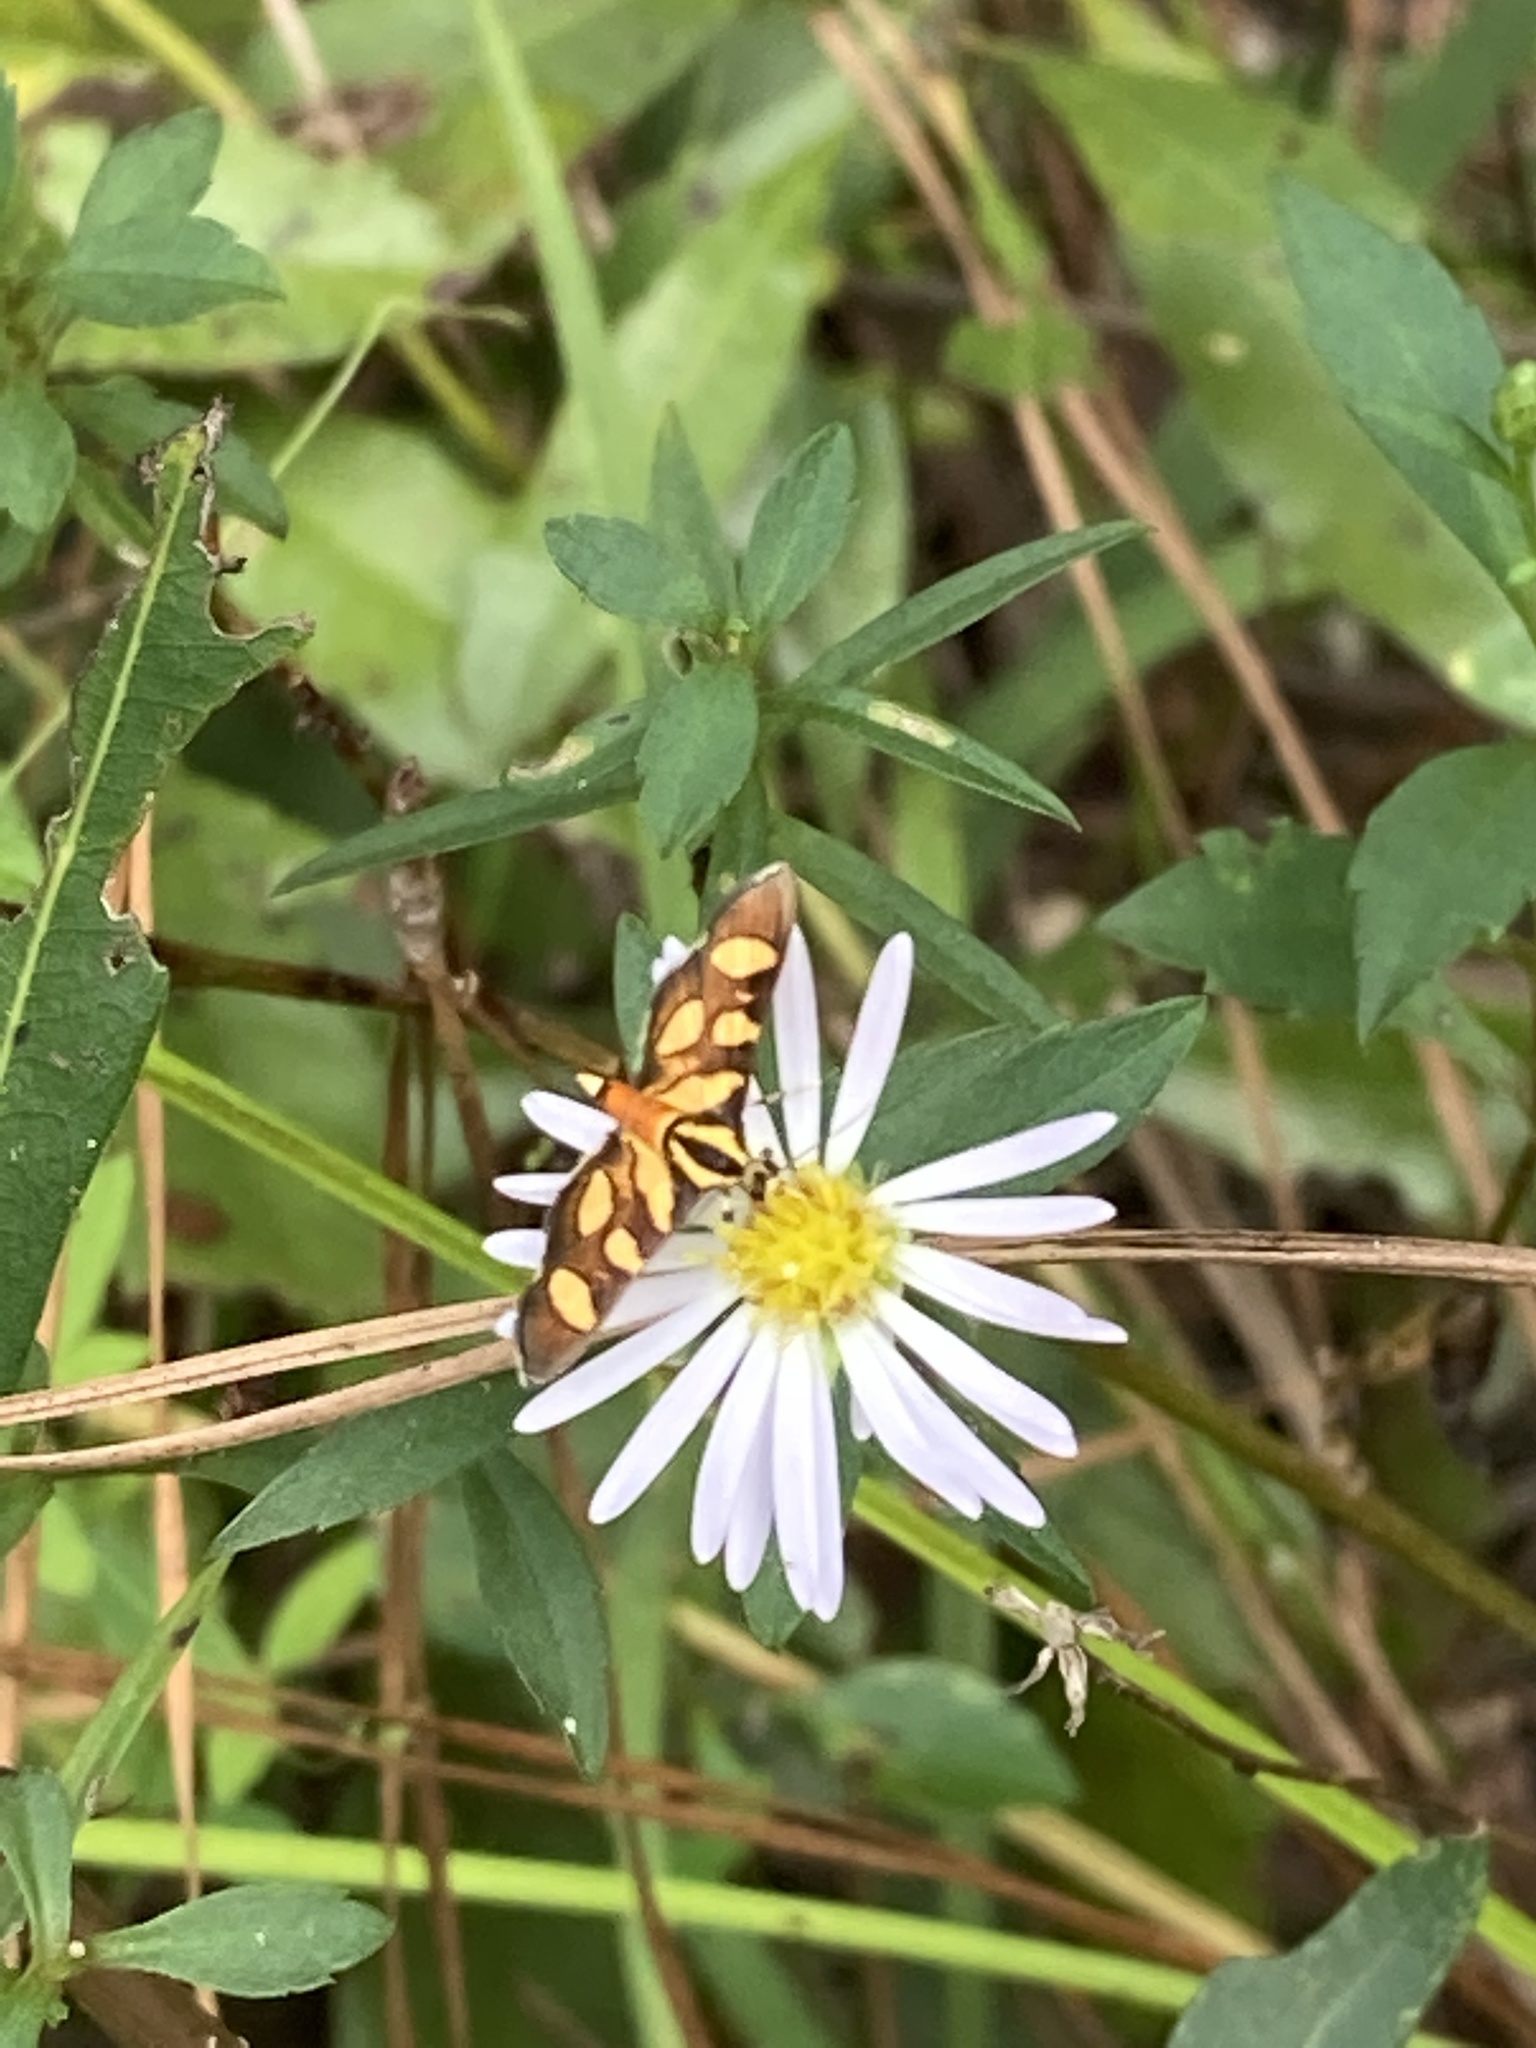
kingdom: Animalia
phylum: Arthropoda
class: Insecta
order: Lepidoptera
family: Crambidae
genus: Syngamia
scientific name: Syngamia florella
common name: Orange-spotted flower moth
